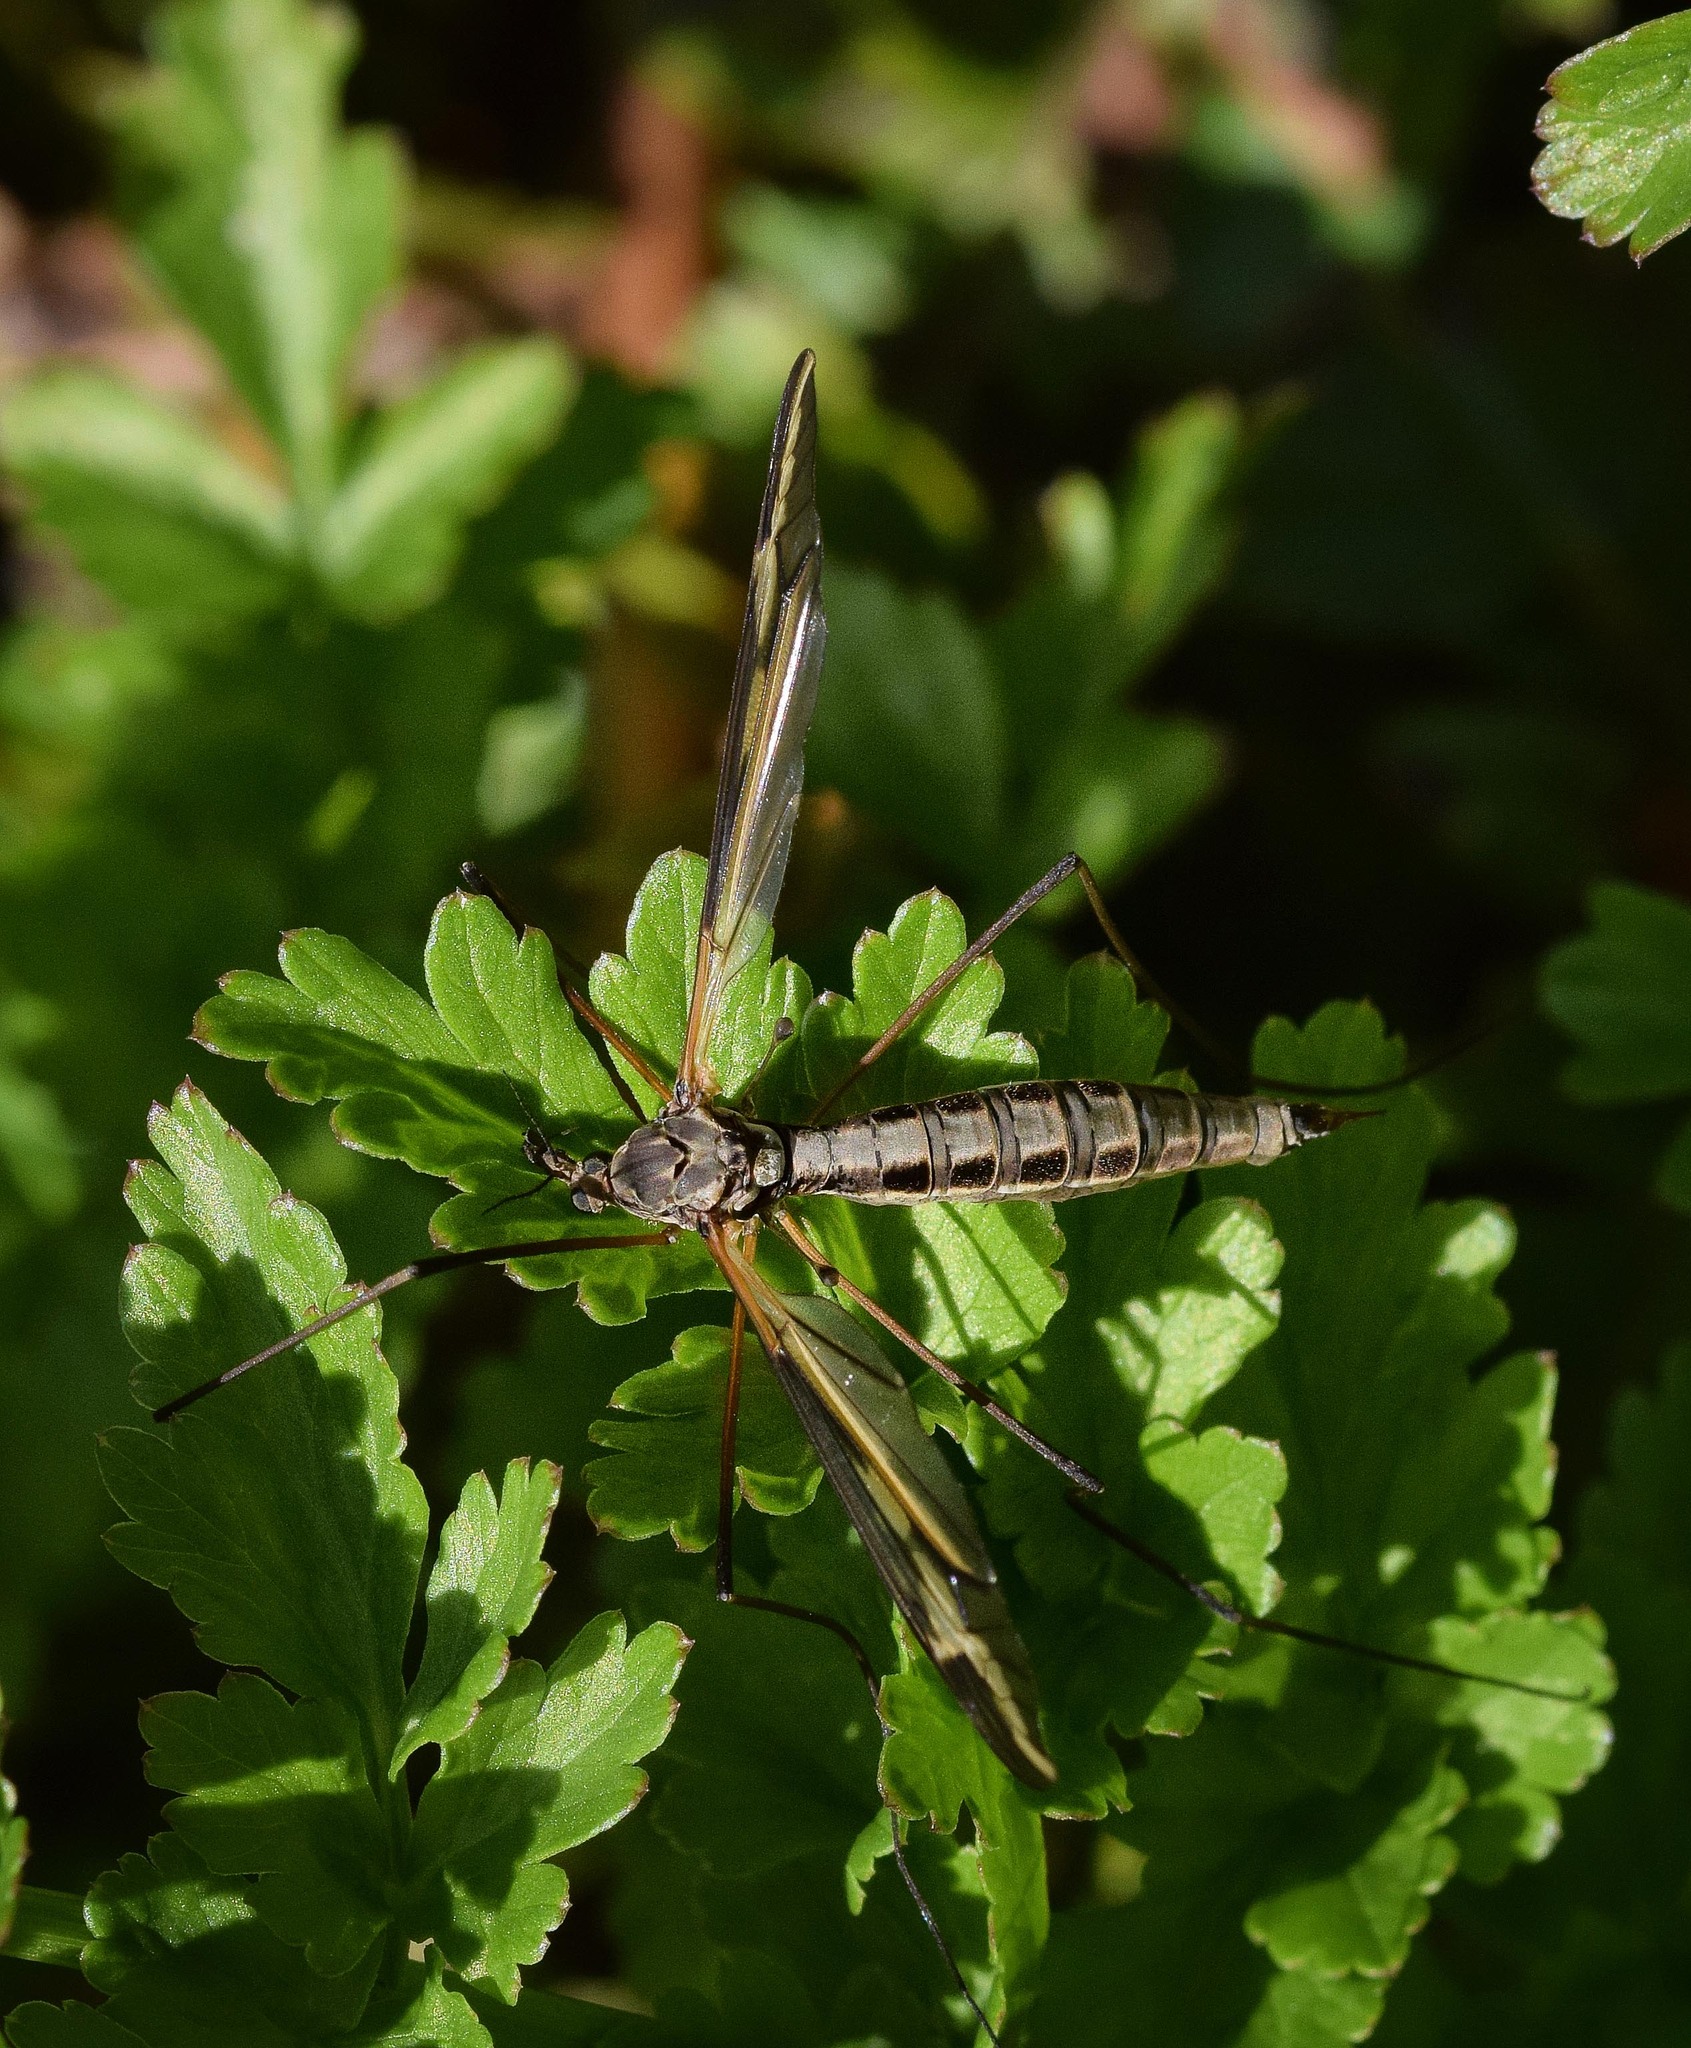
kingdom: Animalia
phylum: Arthropoda
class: Insecta
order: Diptera
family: Tipulidae
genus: Tipula
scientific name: Tipula vittata
